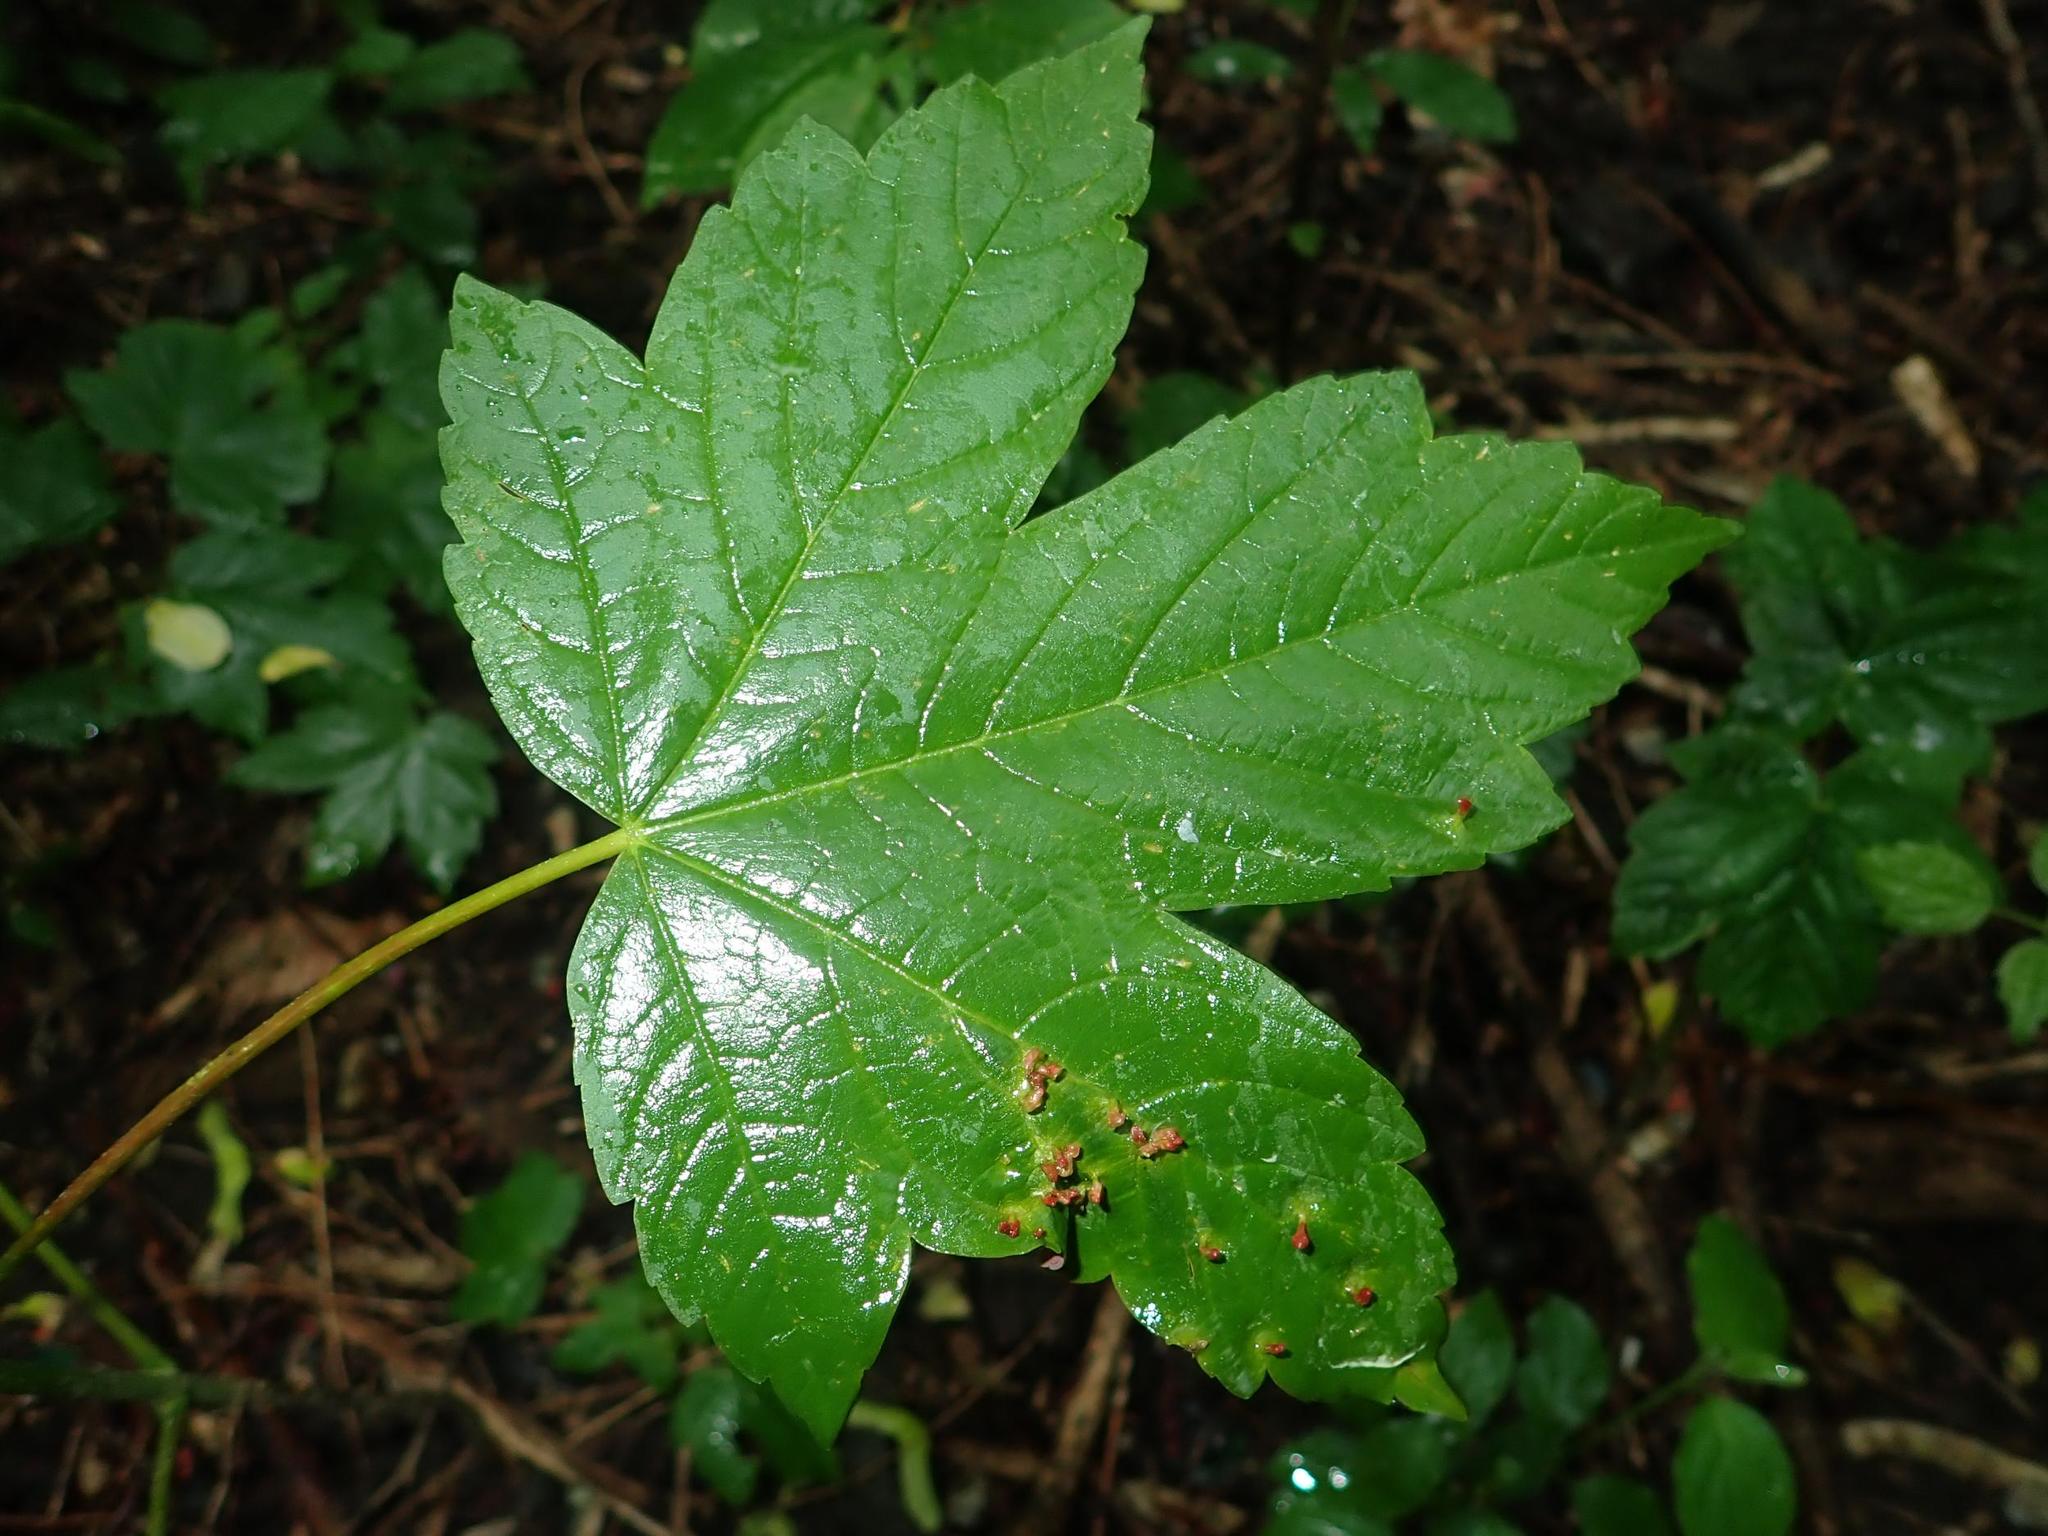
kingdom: Plantae
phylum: Tracheophyta
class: Magnoliopsida
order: Sapindales
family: Sapindaceae
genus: Acer
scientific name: Acer pseudoplatanus
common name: Sycamore
